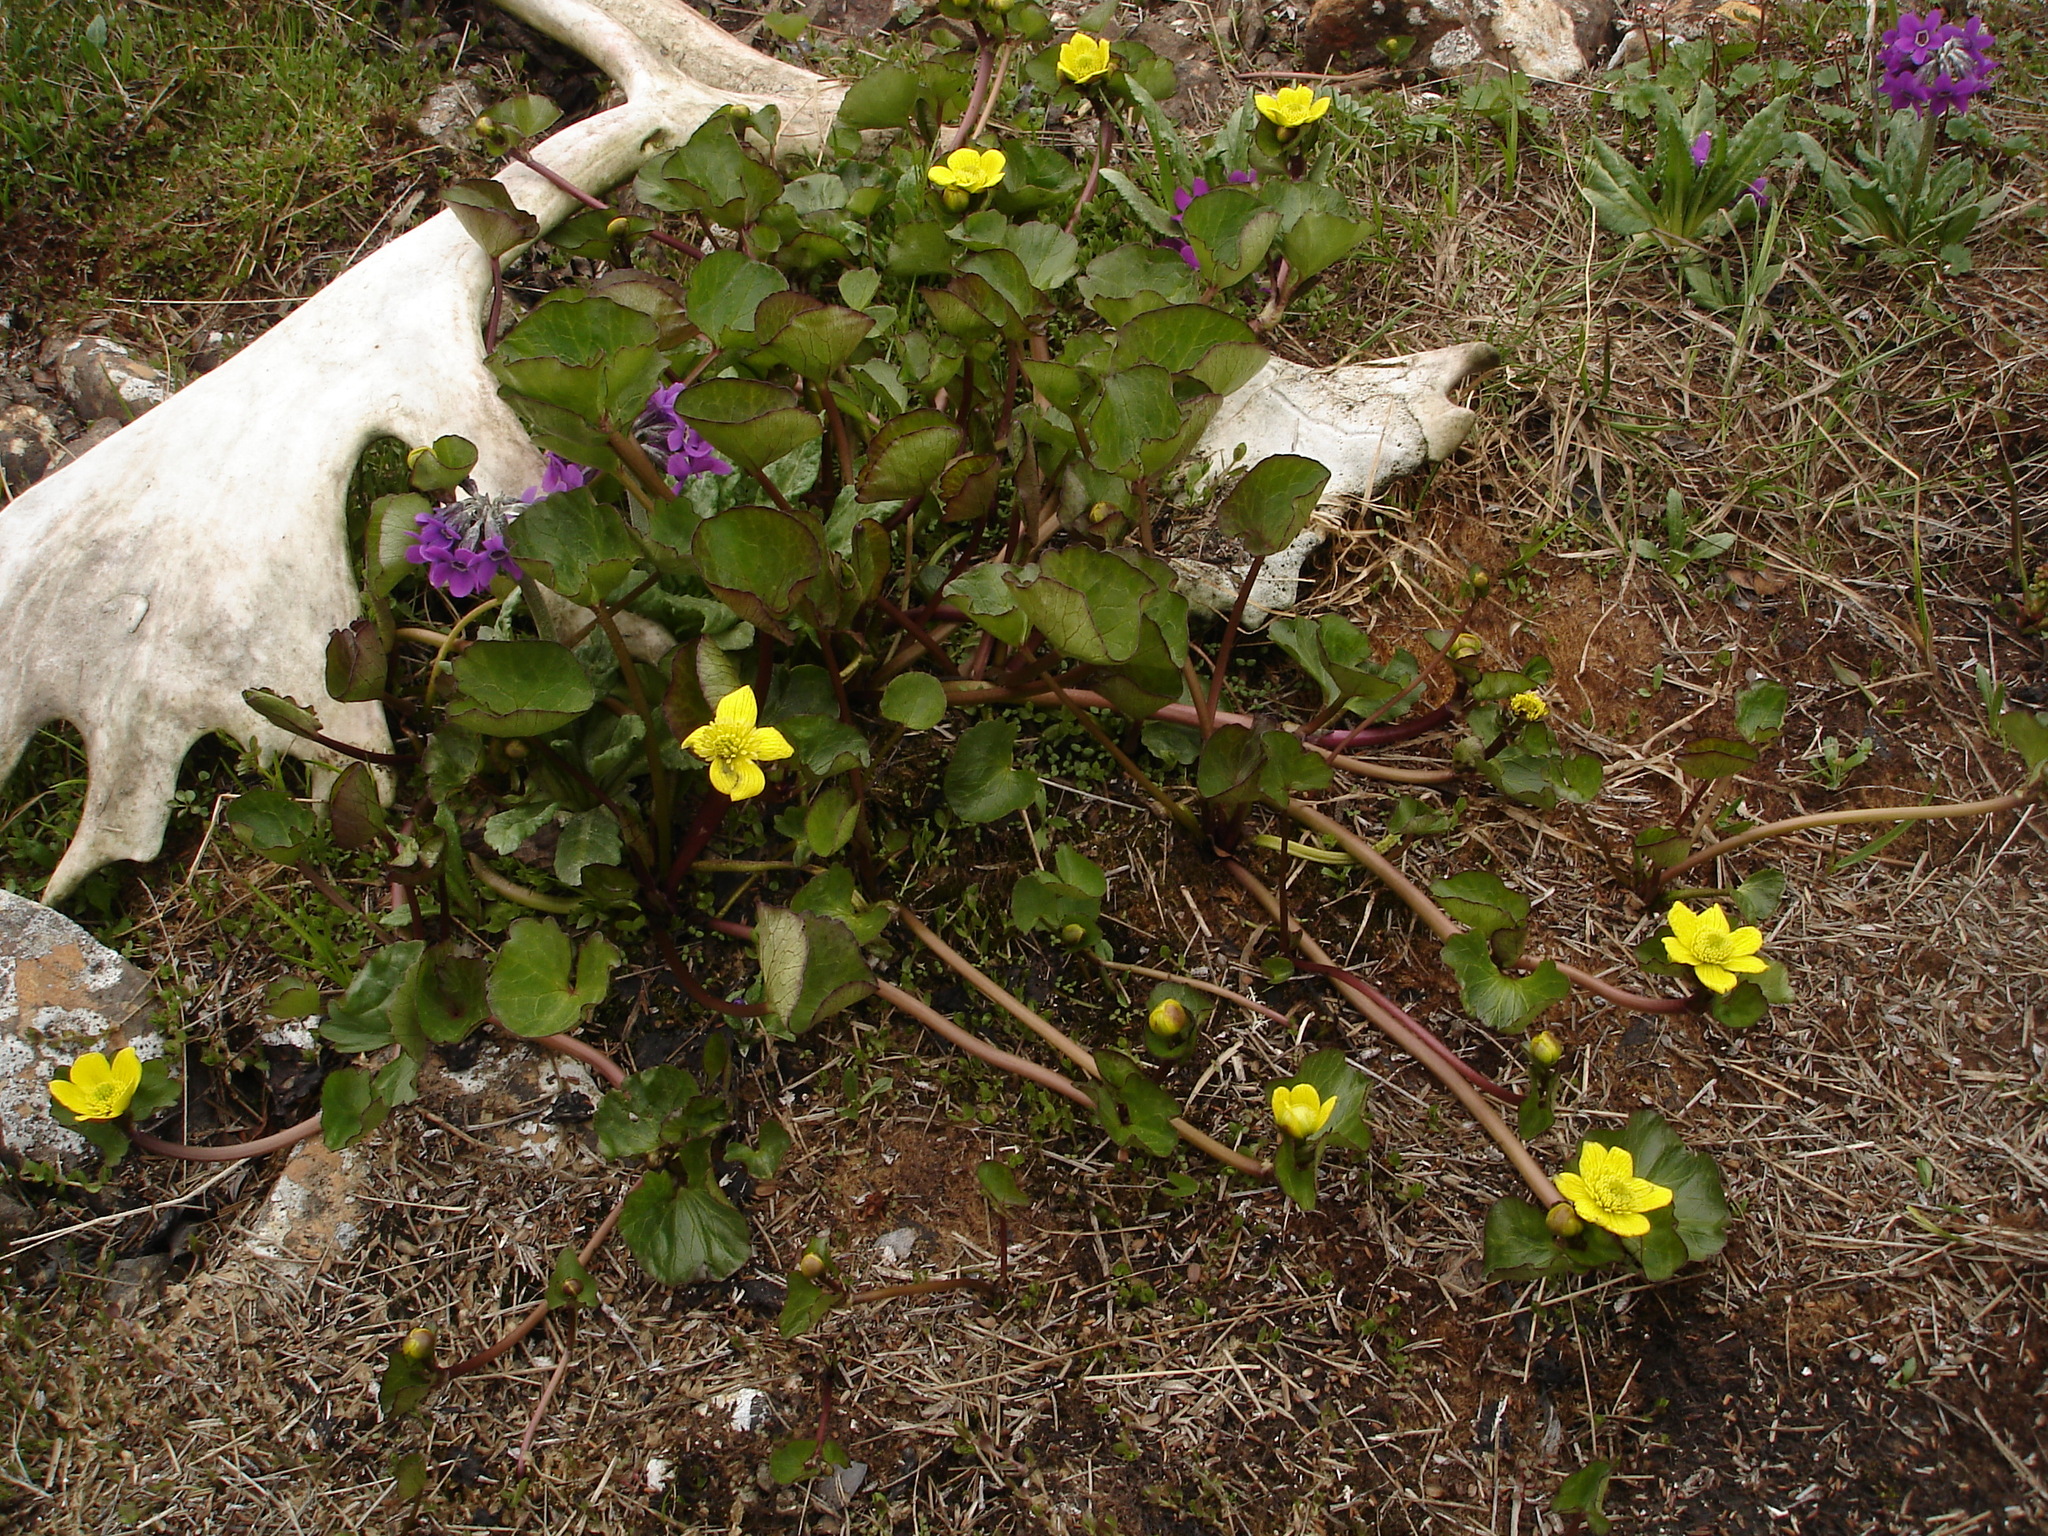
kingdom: Plantae
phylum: Tracheophyta
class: Magnoliopsida
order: Ranunculales
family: Ranunculaceae
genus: Caltha
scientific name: Caltha palustris
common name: Marsh marigold
